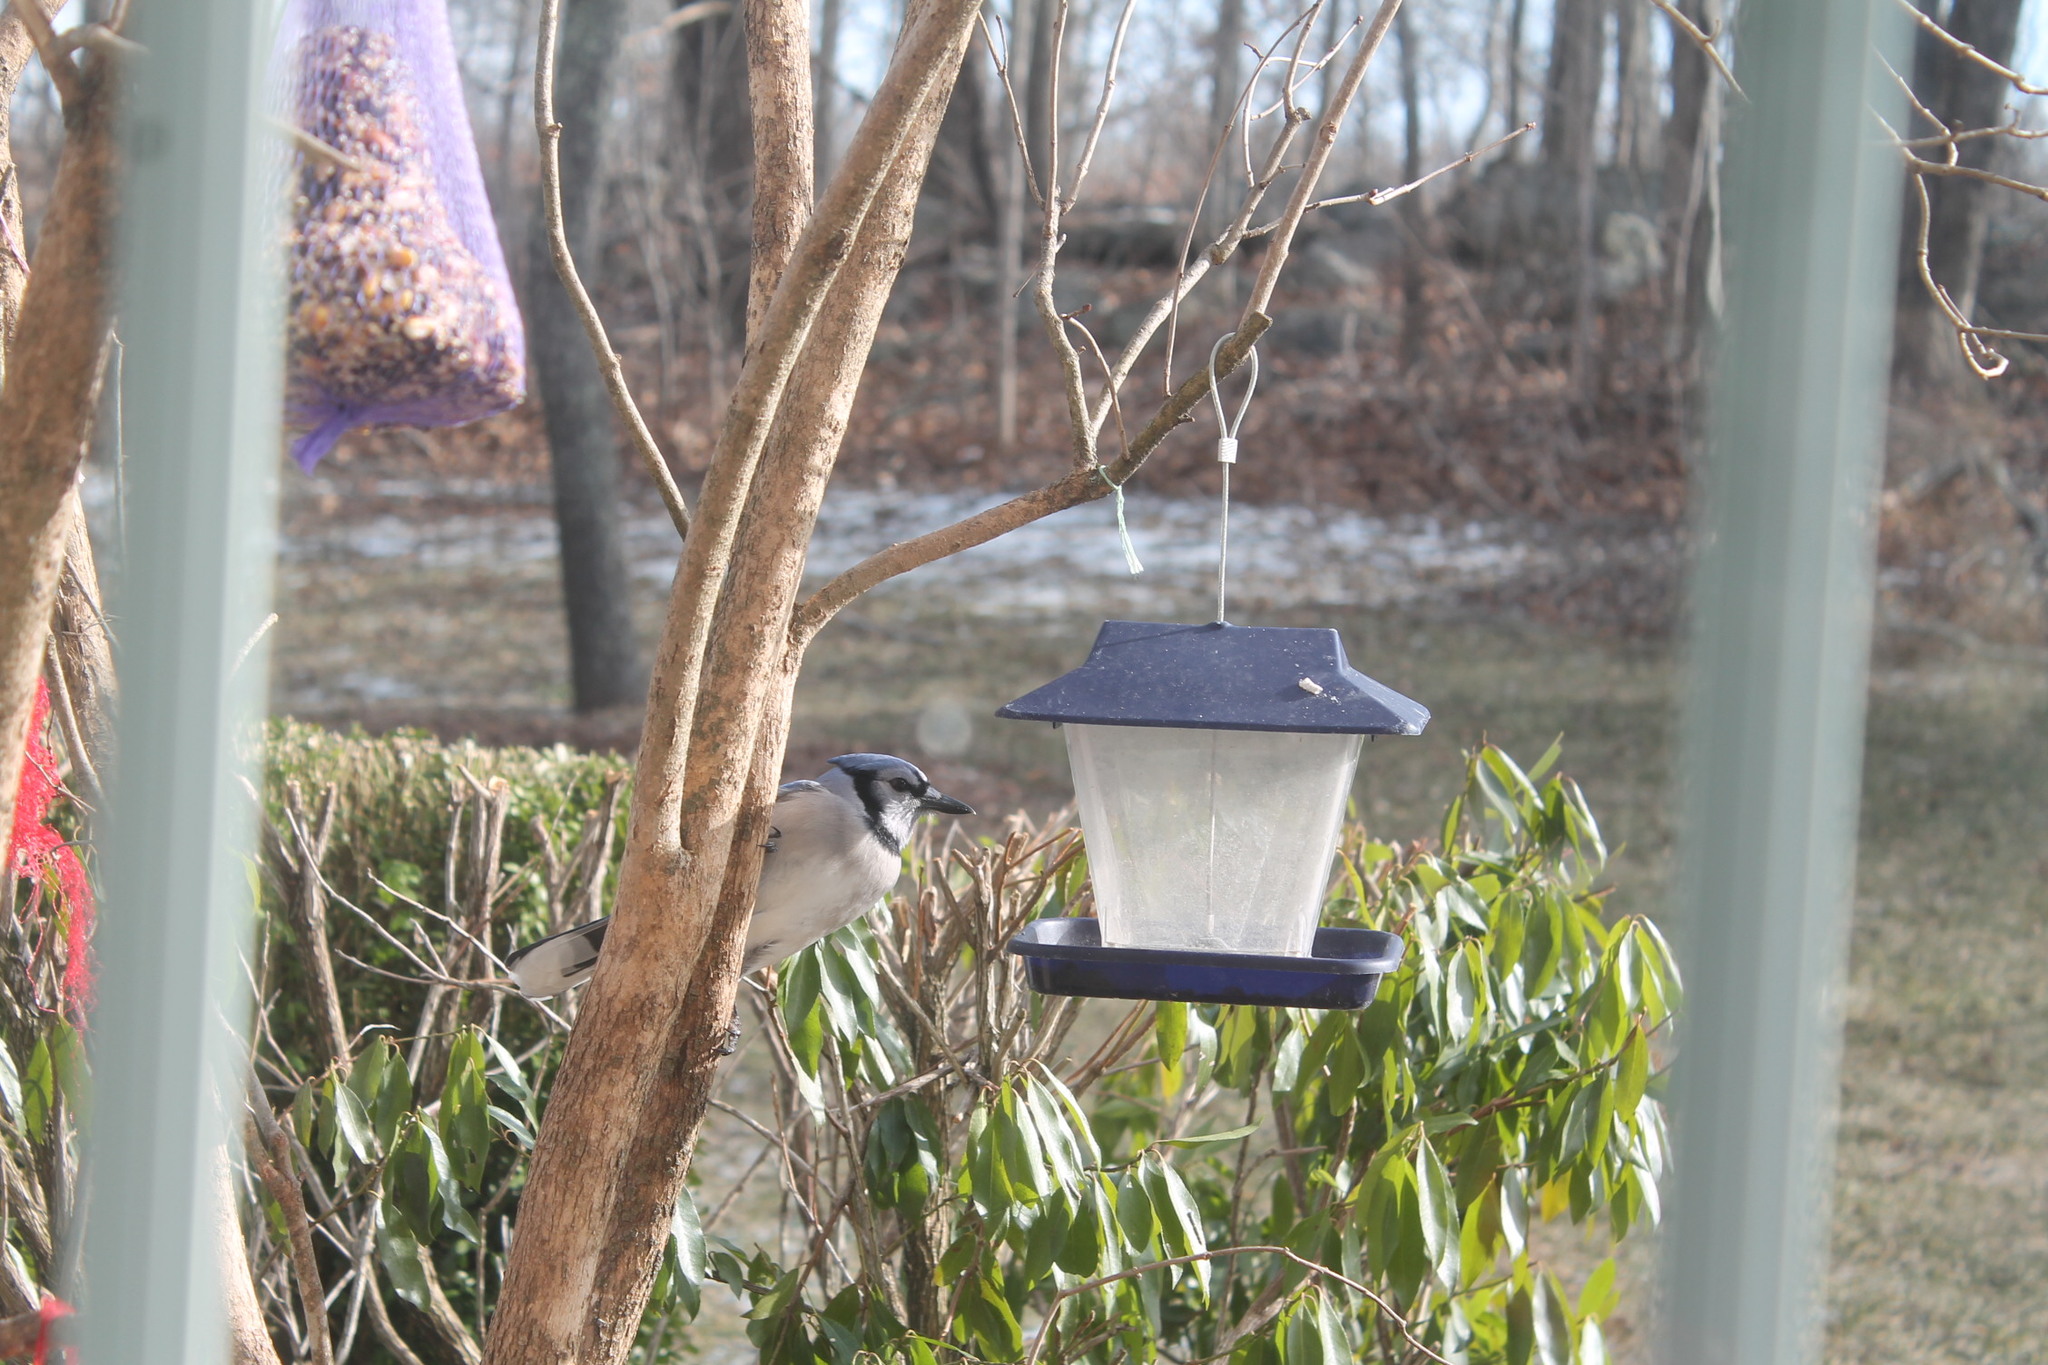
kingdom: Animalia
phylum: Chordata
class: Aves
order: Passeriformes
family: Corvidae
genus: Cyanocitta
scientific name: Cyanocitta cristata
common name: Blue jay
